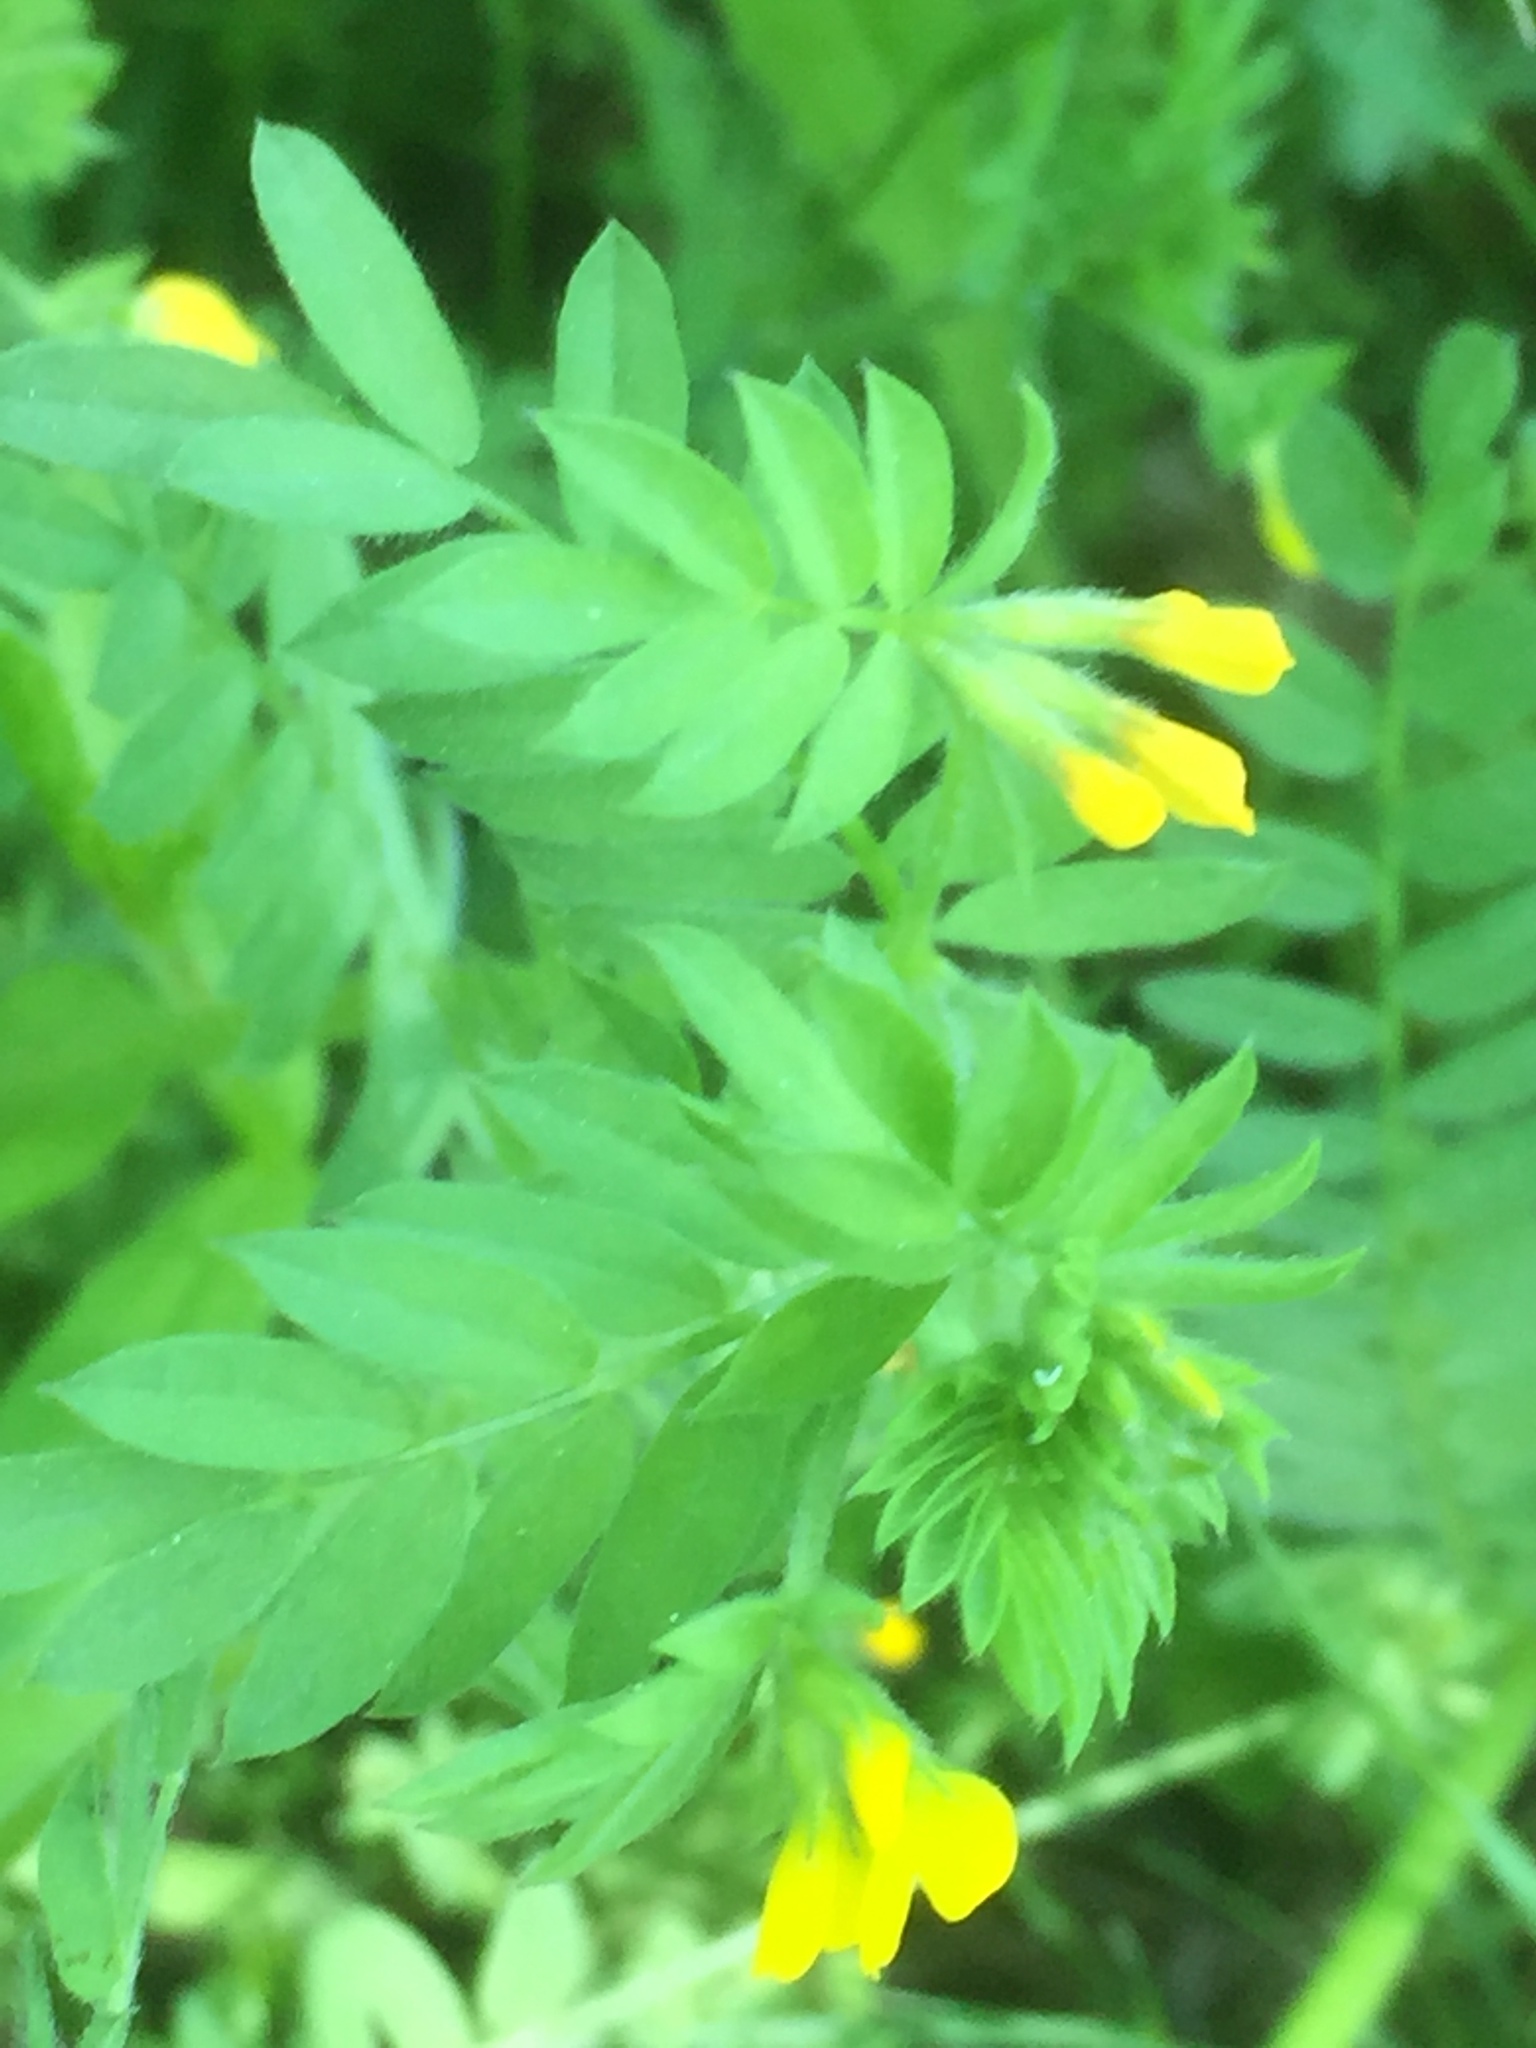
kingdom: Plantae
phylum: Tracheophyta
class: Magnoliopsida
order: Fabales
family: Fabaceae
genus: Ornithopus
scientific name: Ornithopus compressus
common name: Yellow serradella
